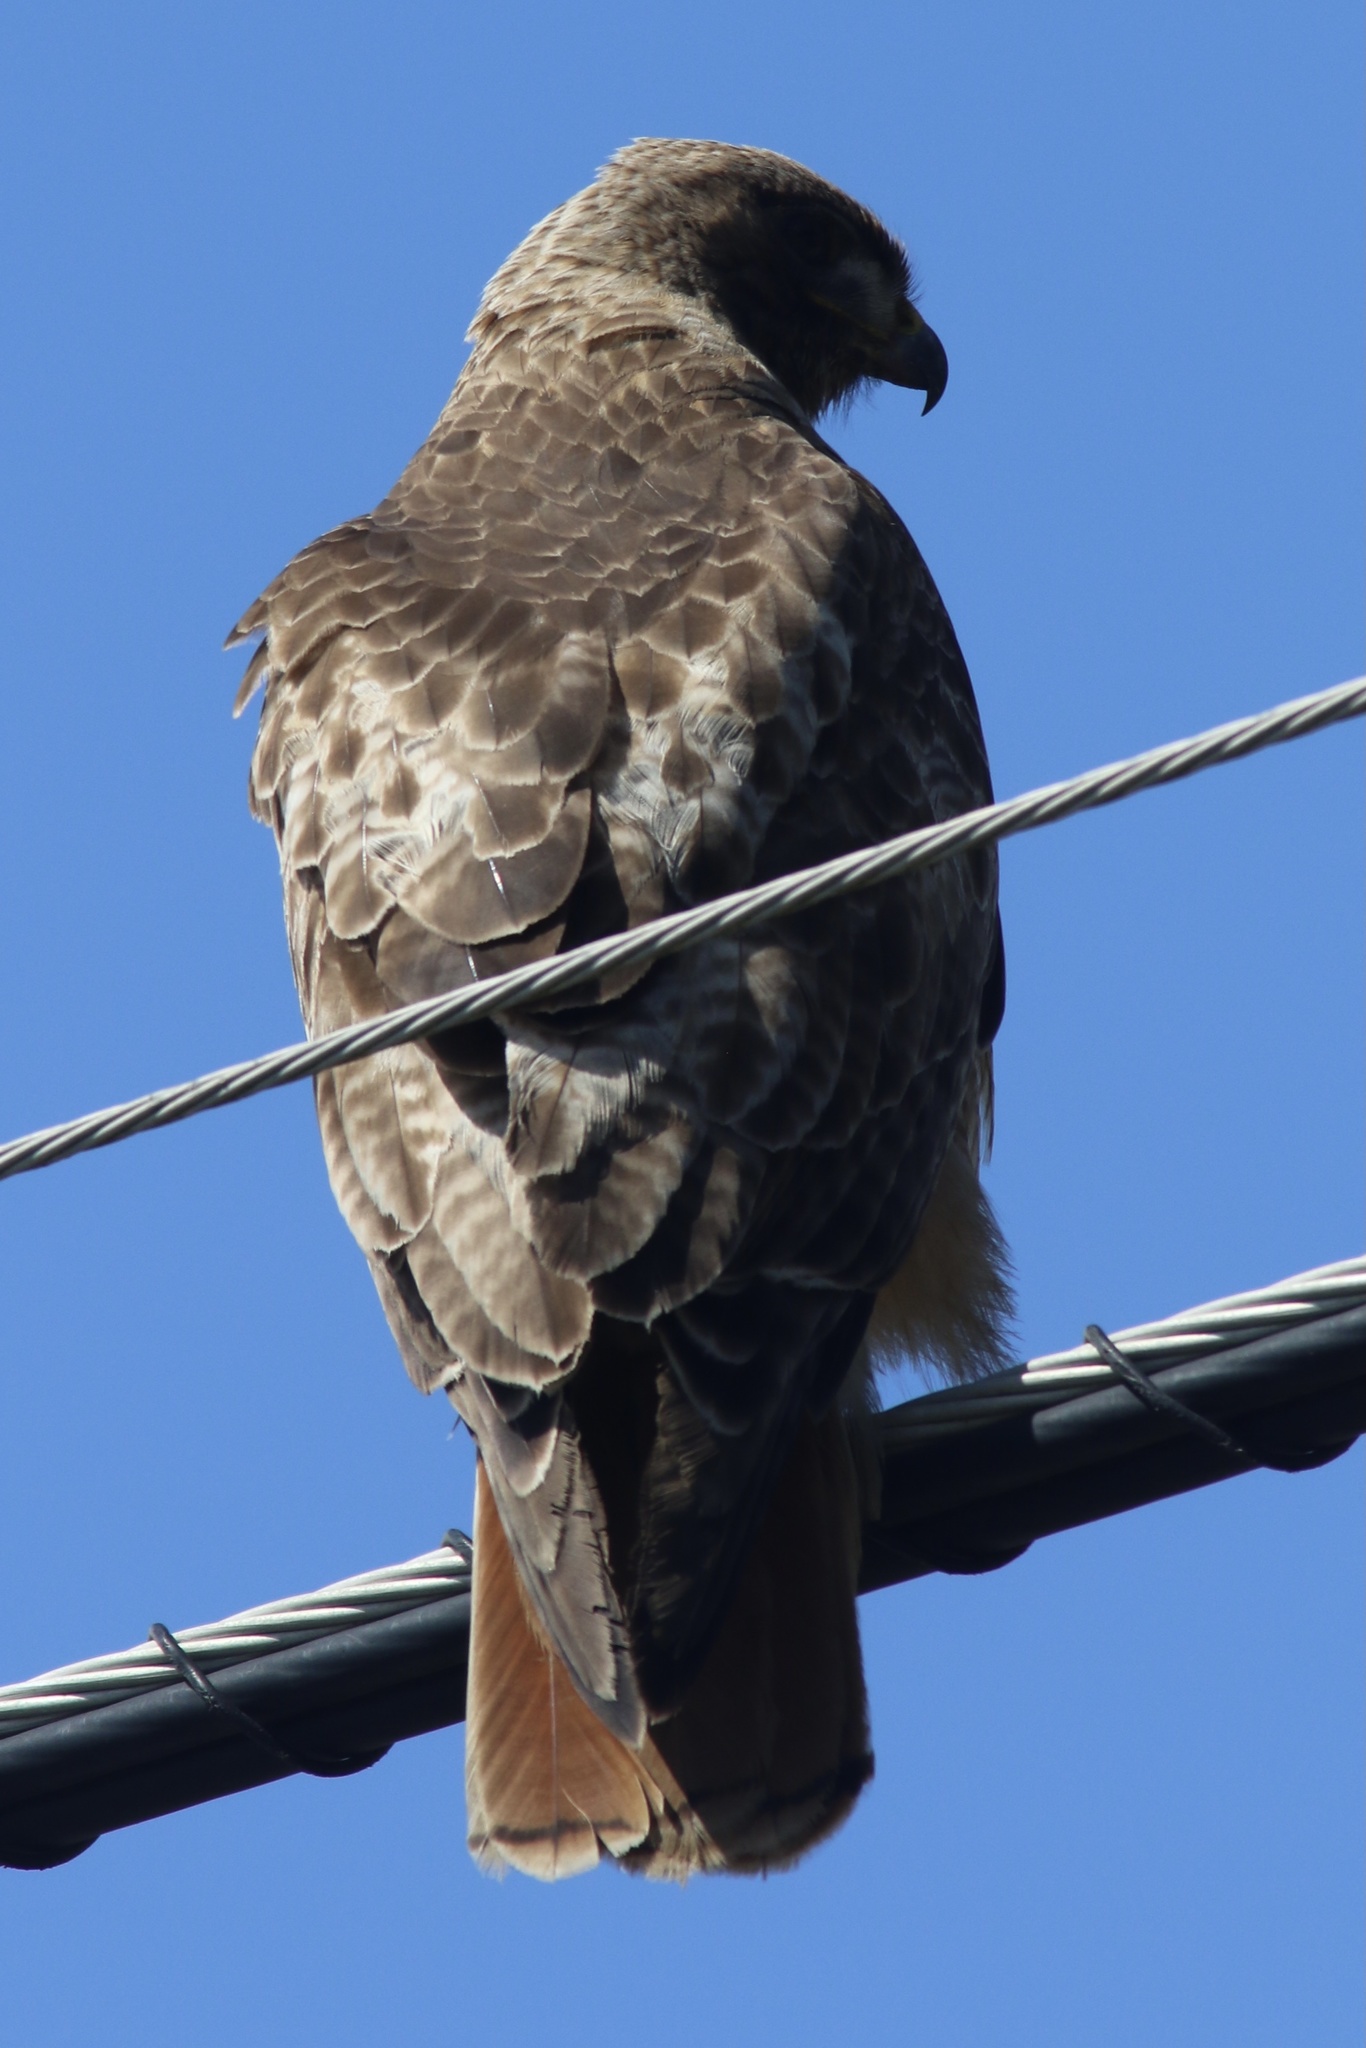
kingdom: Animalia
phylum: Chordata
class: Aves
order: Accipitriformes
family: Accipitridae
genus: Buteo
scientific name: Buteo jamaicensis
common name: Red-tailed hawk
